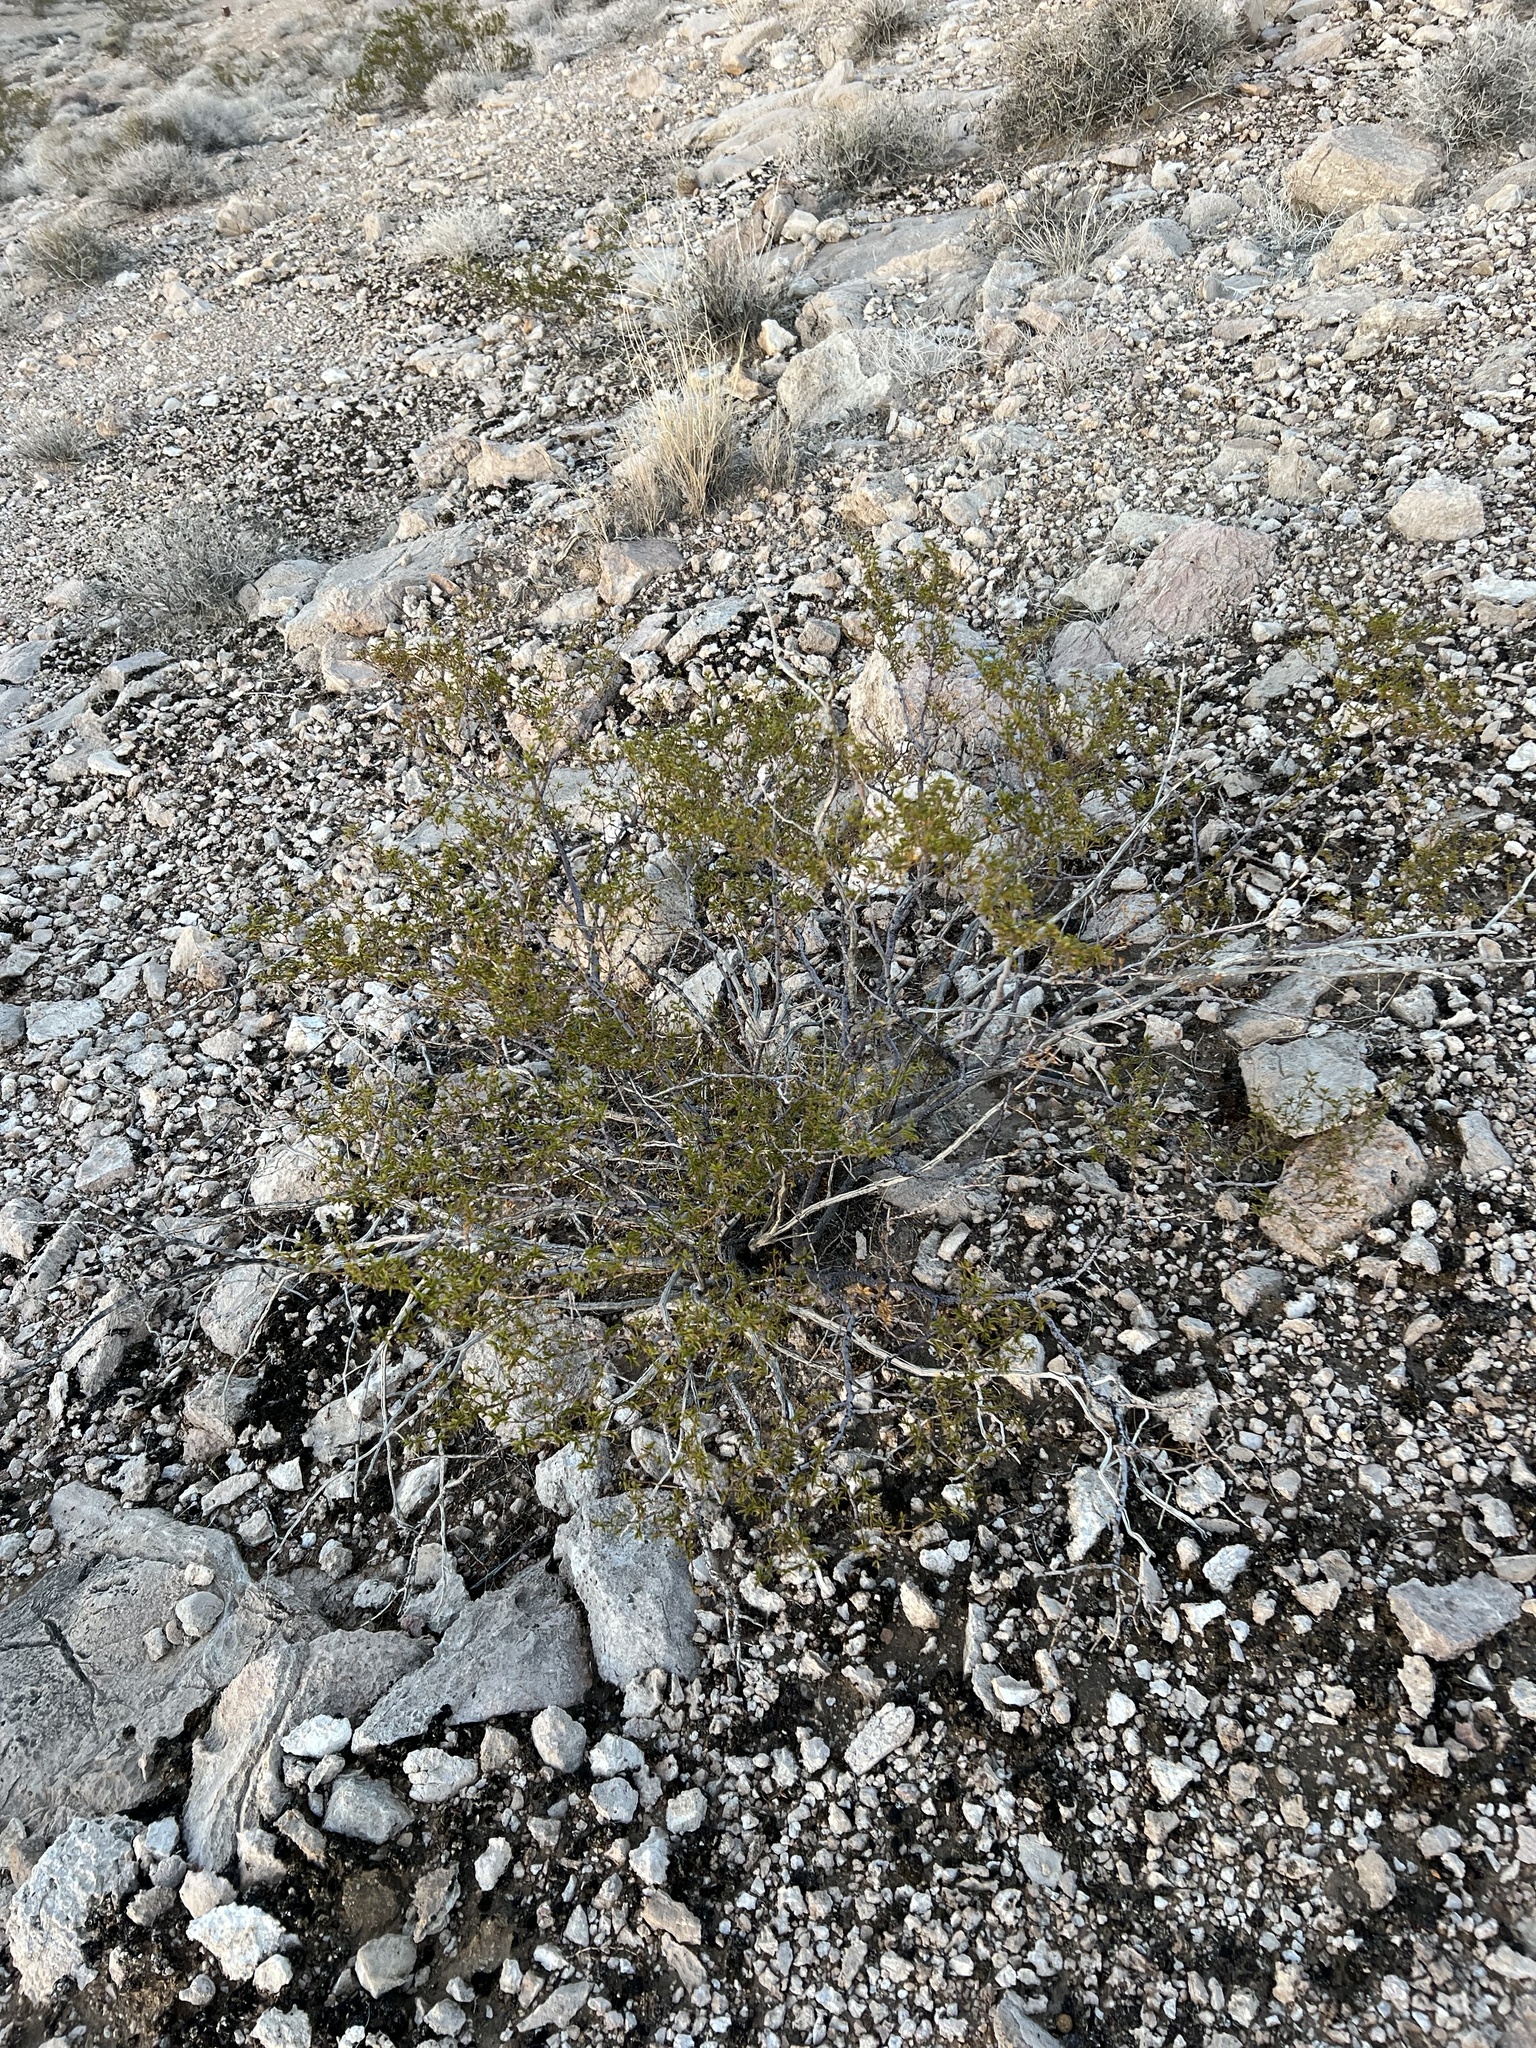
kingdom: Plantae
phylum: Tracheophyta
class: Magnoliopsida
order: Zygophyllales
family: Zygophyllaceae
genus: Larrea
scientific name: Larrea tridentata
